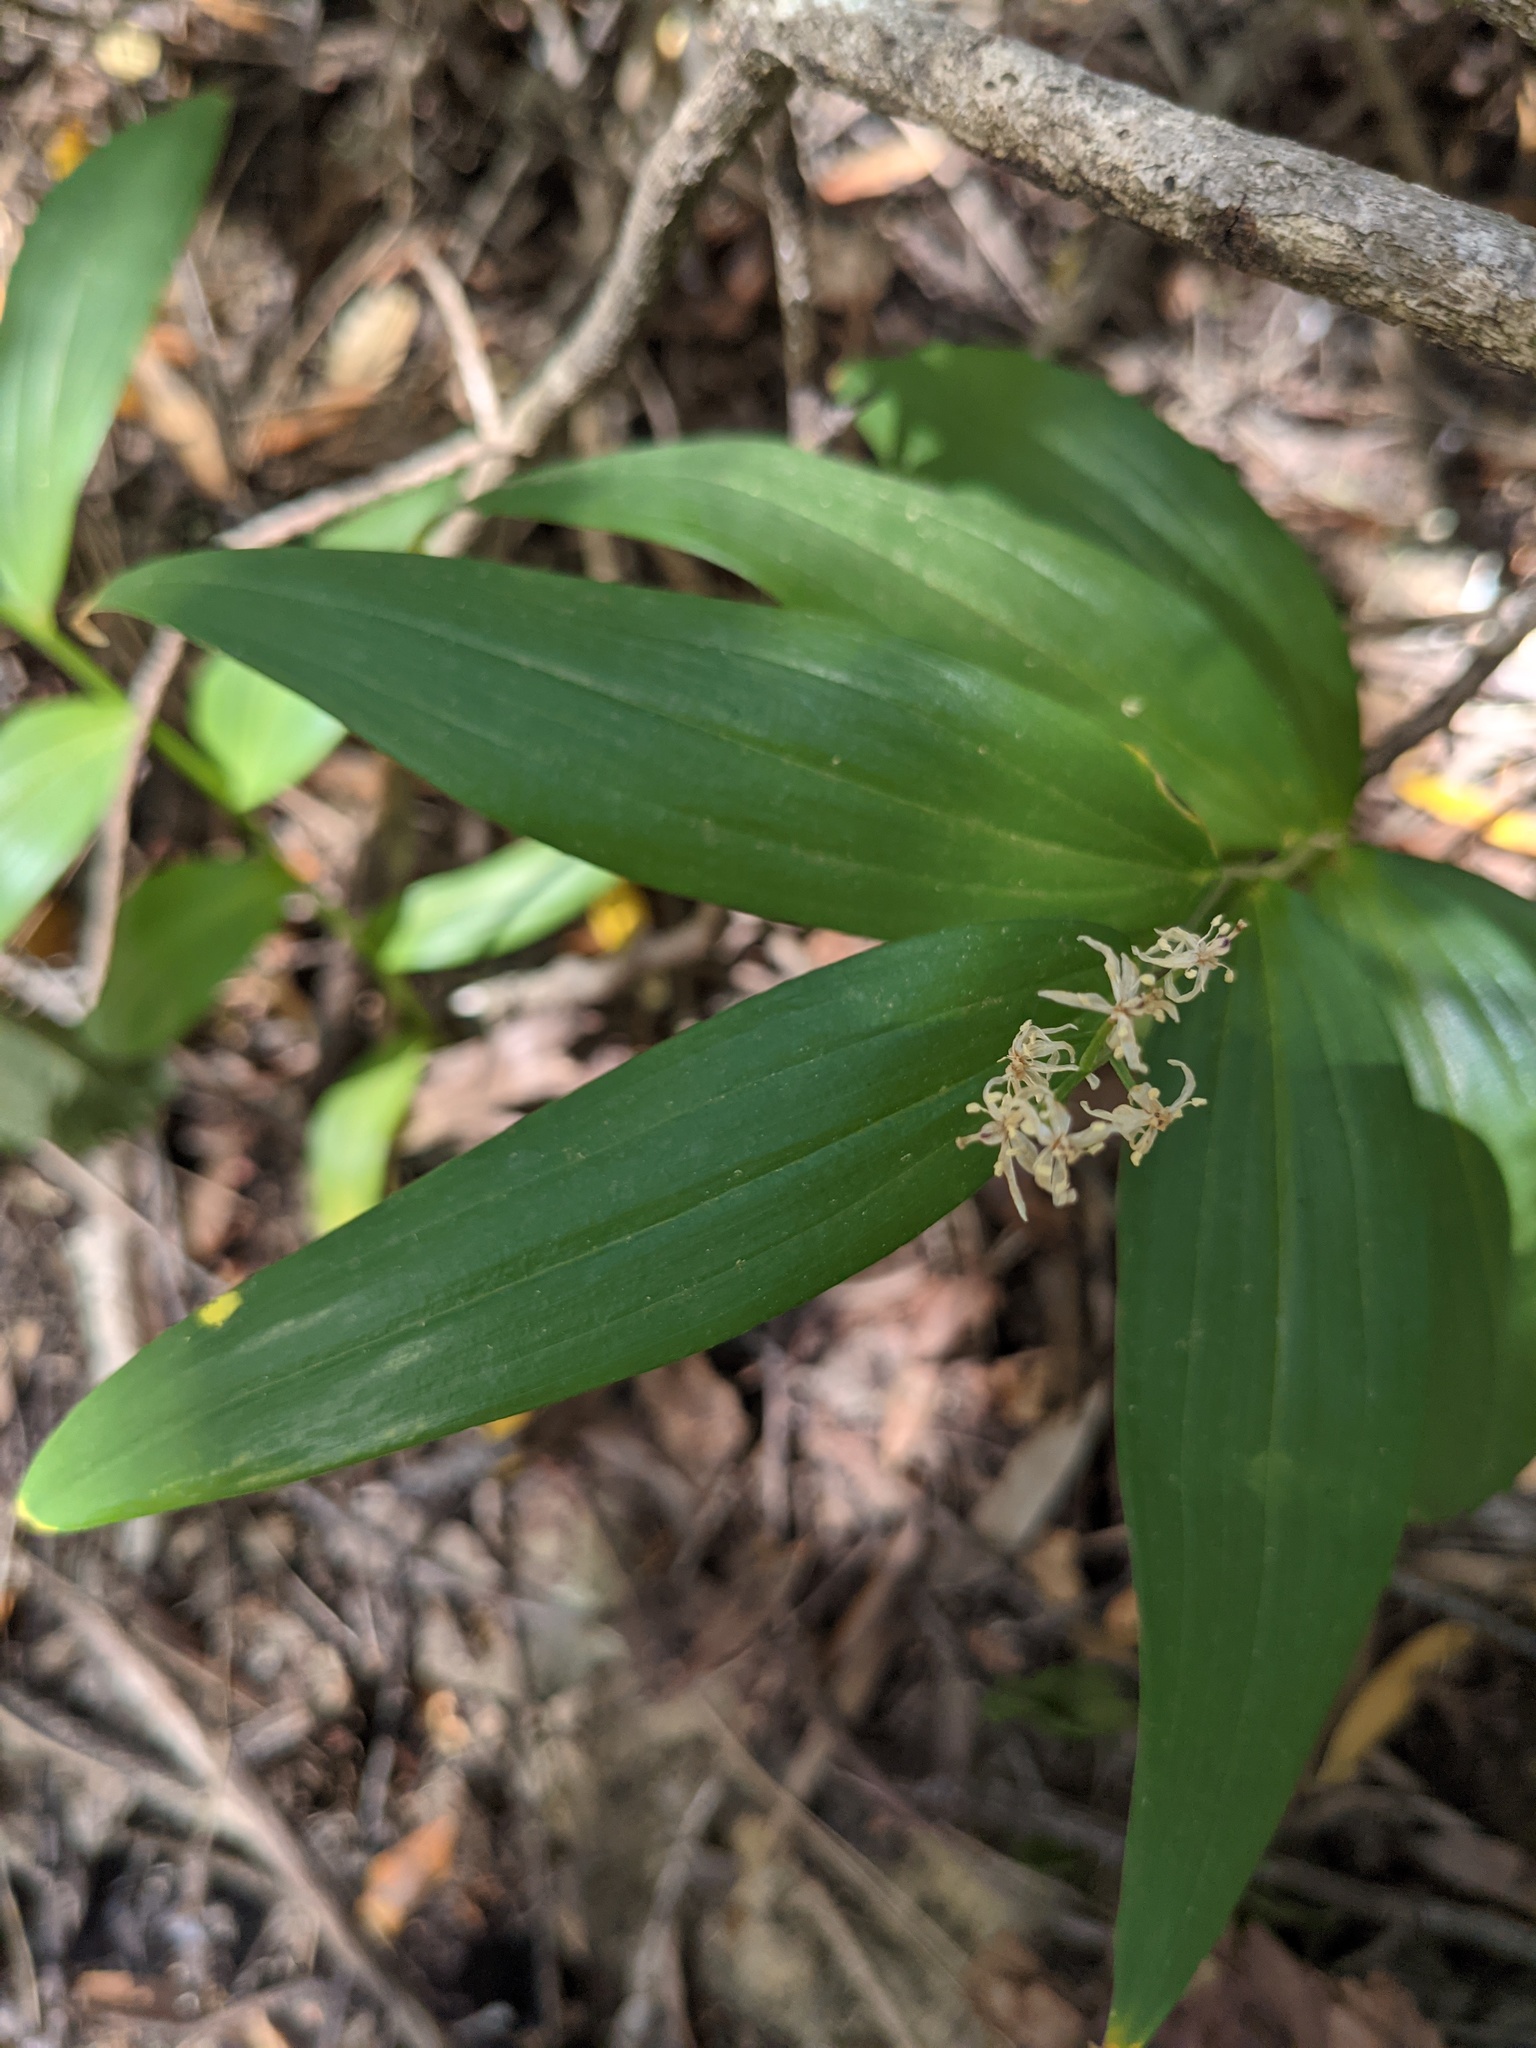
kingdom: Plantae
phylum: Tracheophyta
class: Liliopsida
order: Asparagales
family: Asparagaceae
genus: Maianthemum
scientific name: Maianthemum stellatum
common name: Little false solomon's seal
